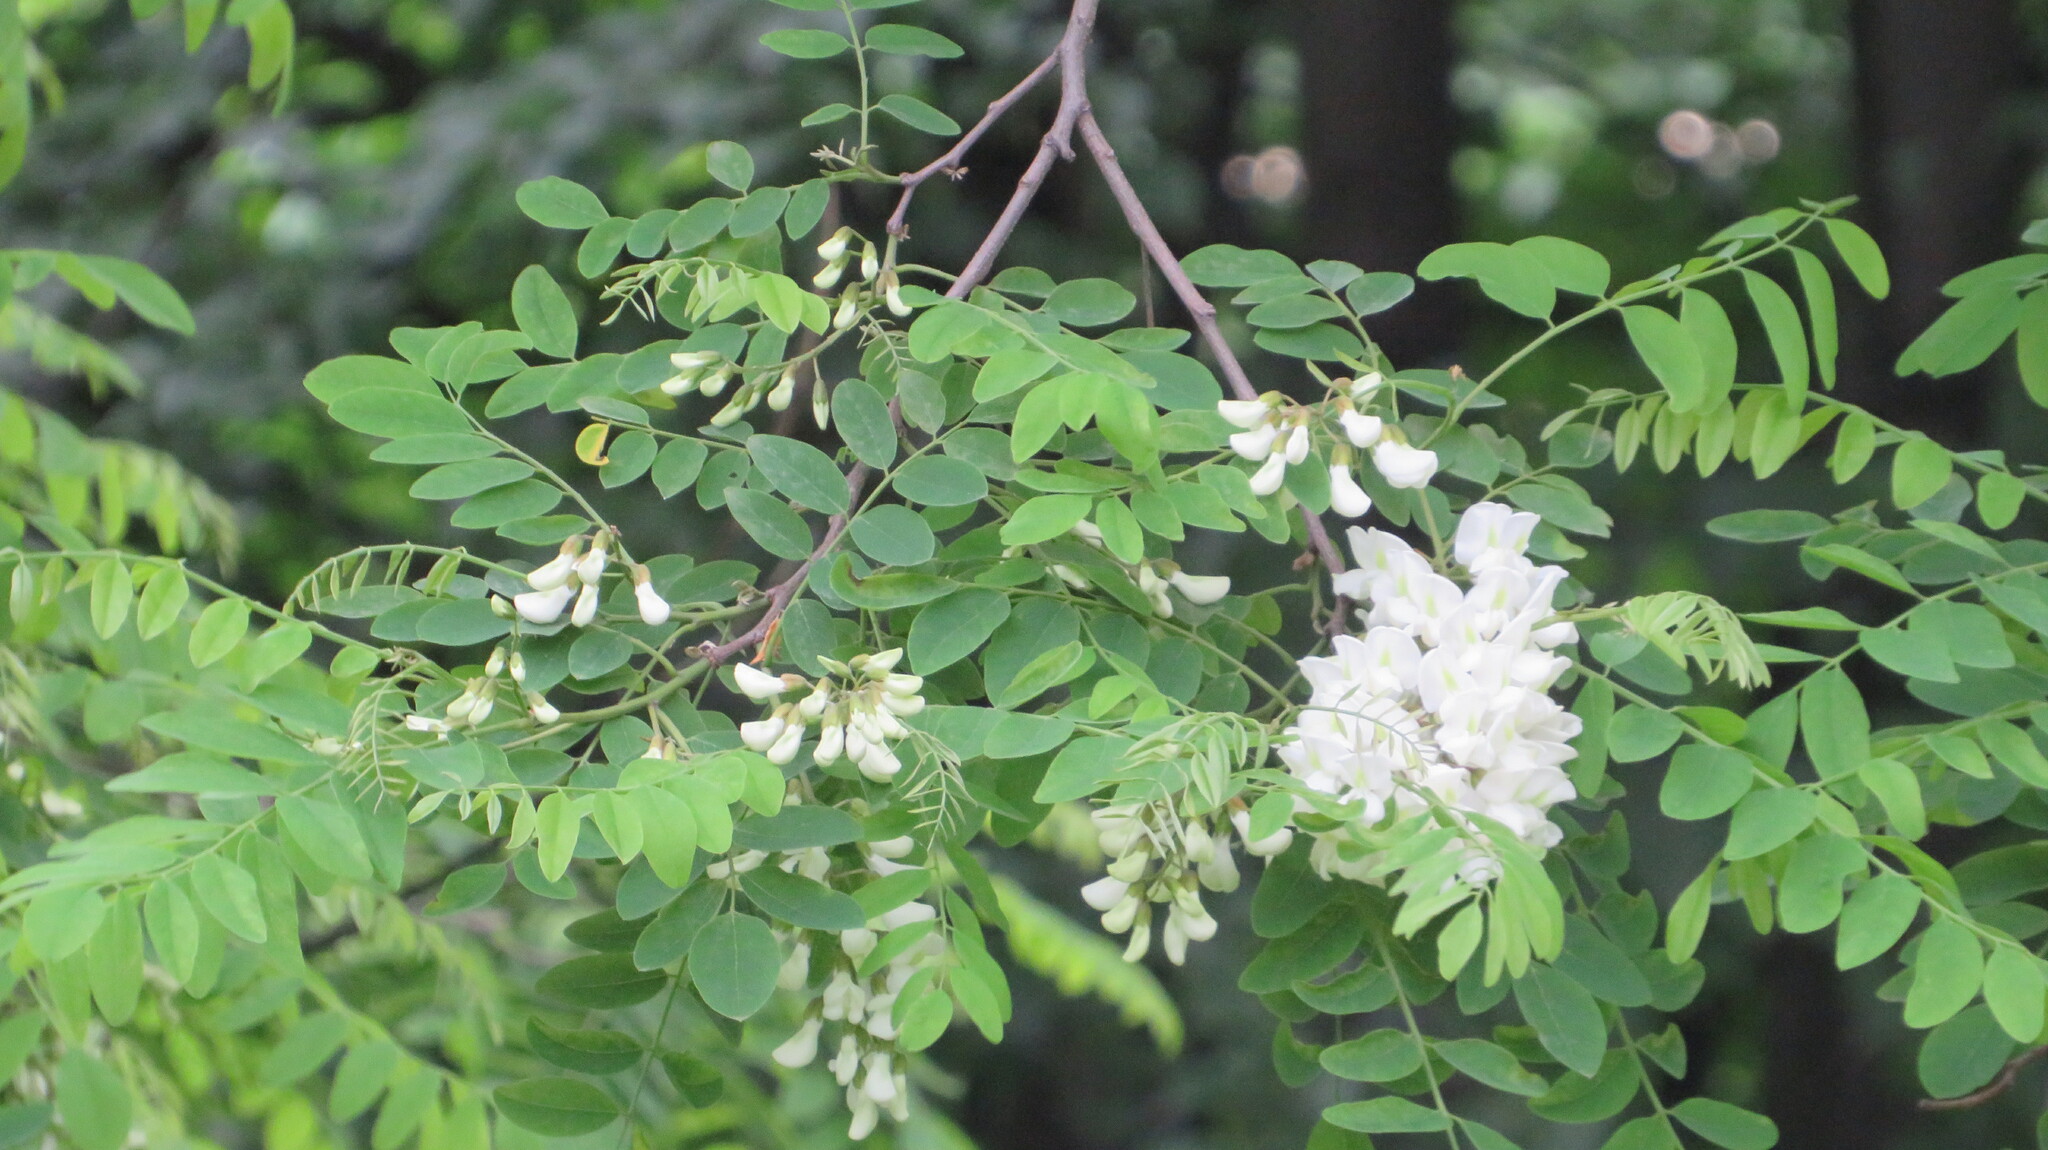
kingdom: Plantae
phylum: Tracheophyta
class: Magnoliopsida
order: Fabales
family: Fabaceae
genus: Robinia
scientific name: Robinia pseudoacacia
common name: Black locust
